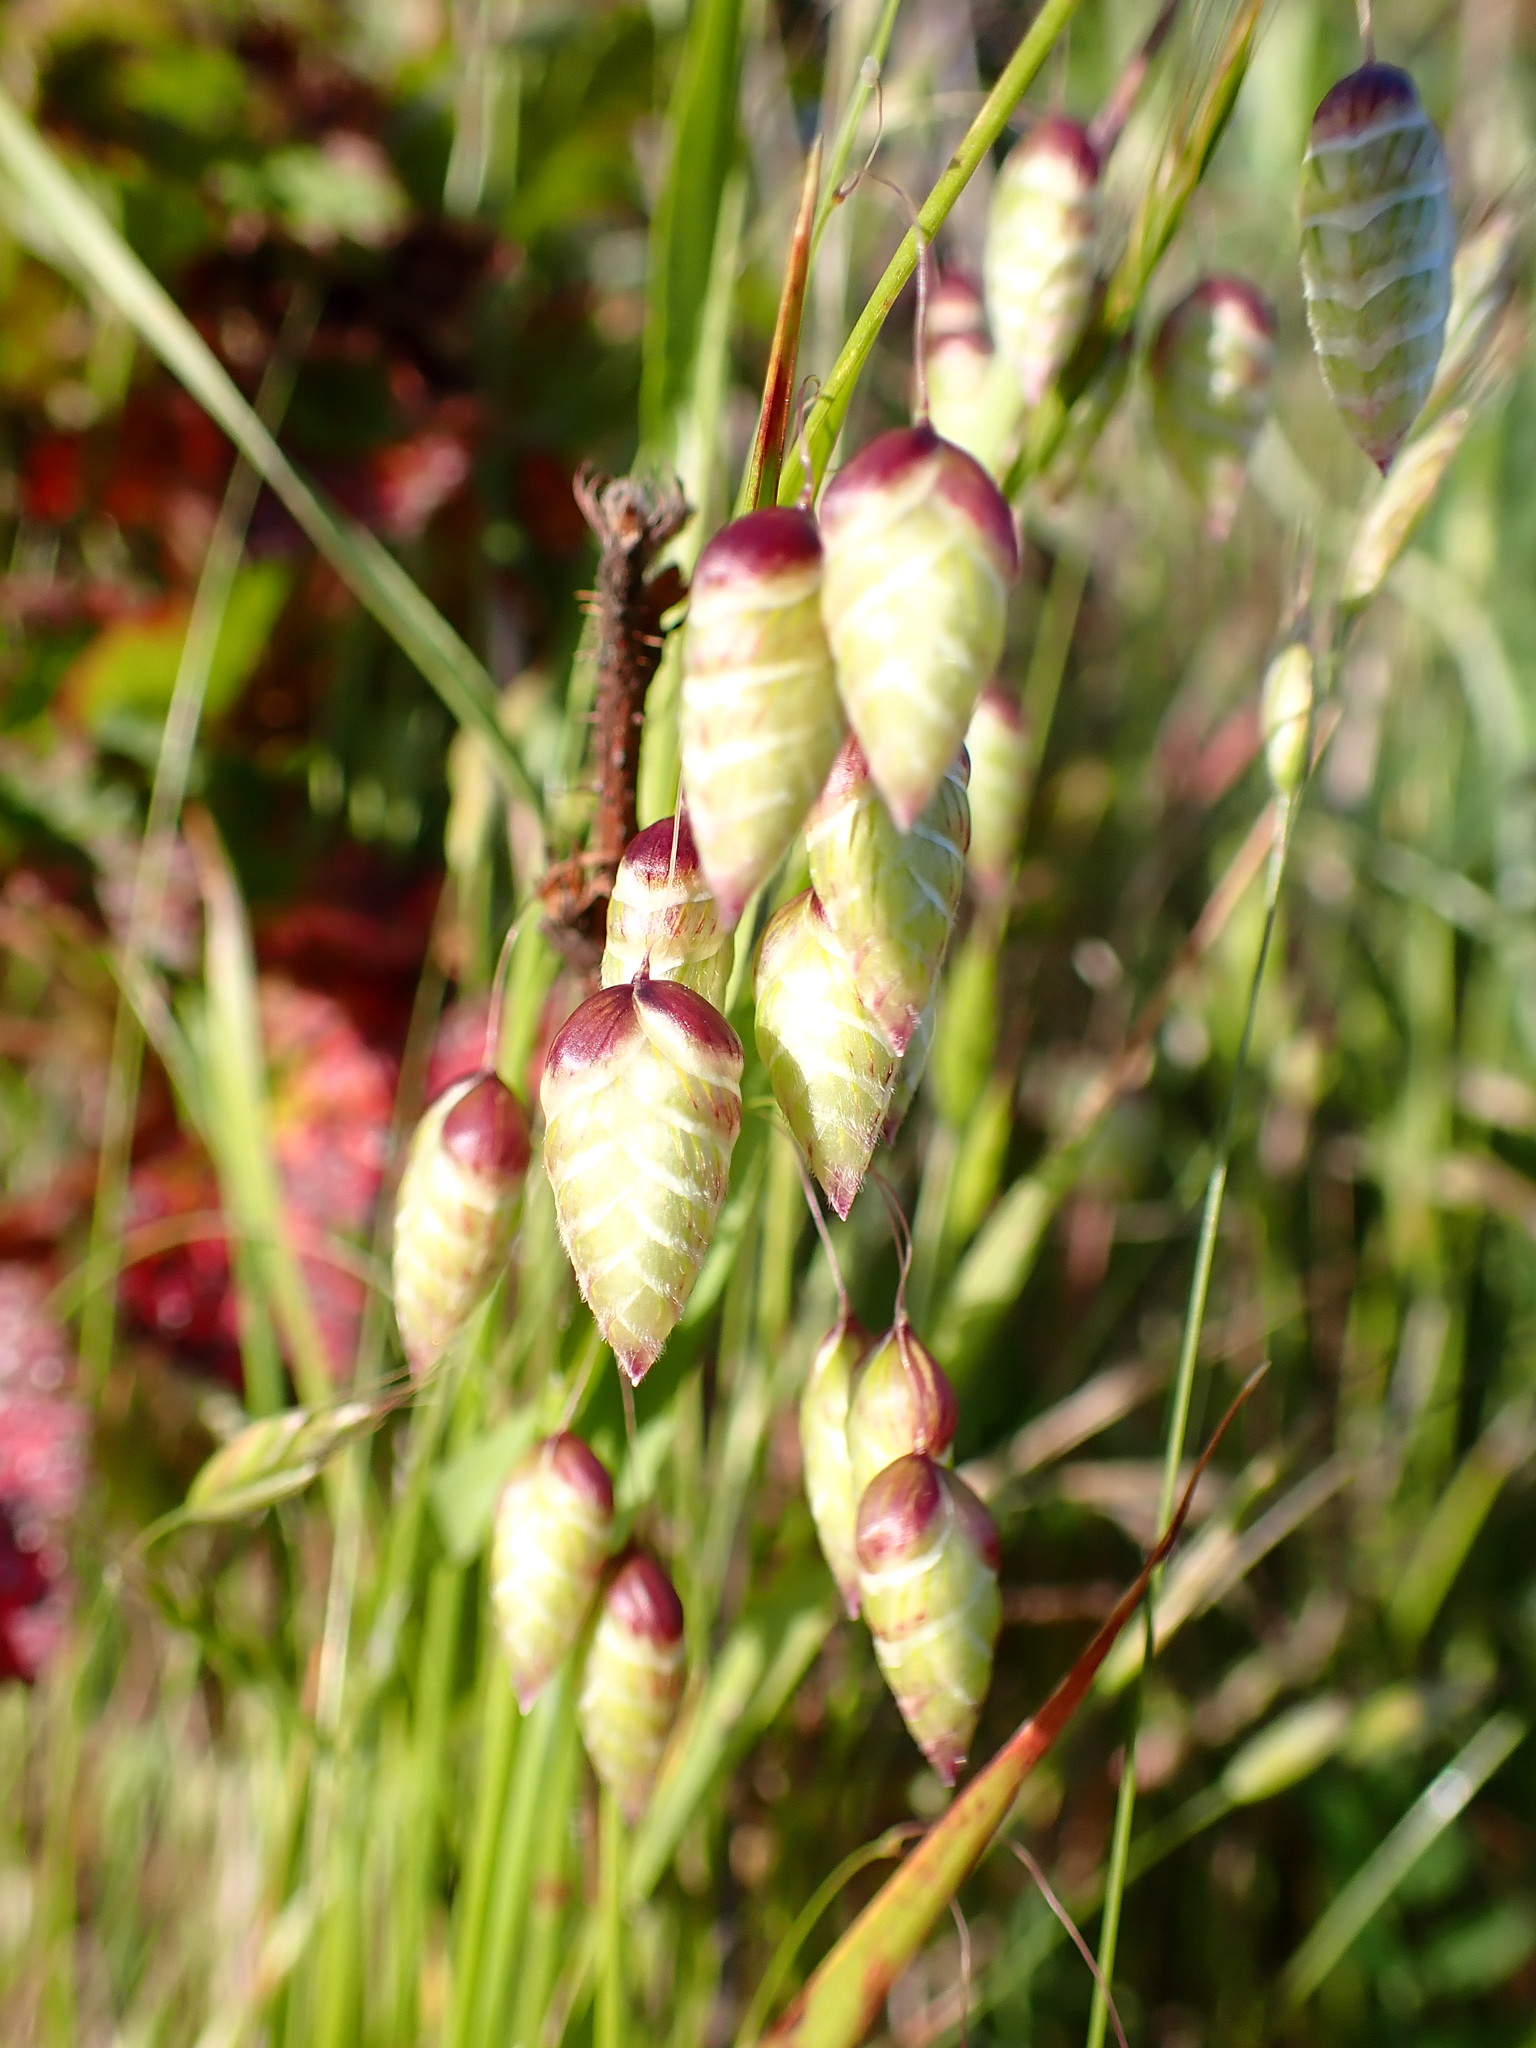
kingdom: Plantae
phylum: Tracheophyta
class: Liliopsida
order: Poales
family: Poaceae
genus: Briza
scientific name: Briza maxima
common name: Big quakinggrass
